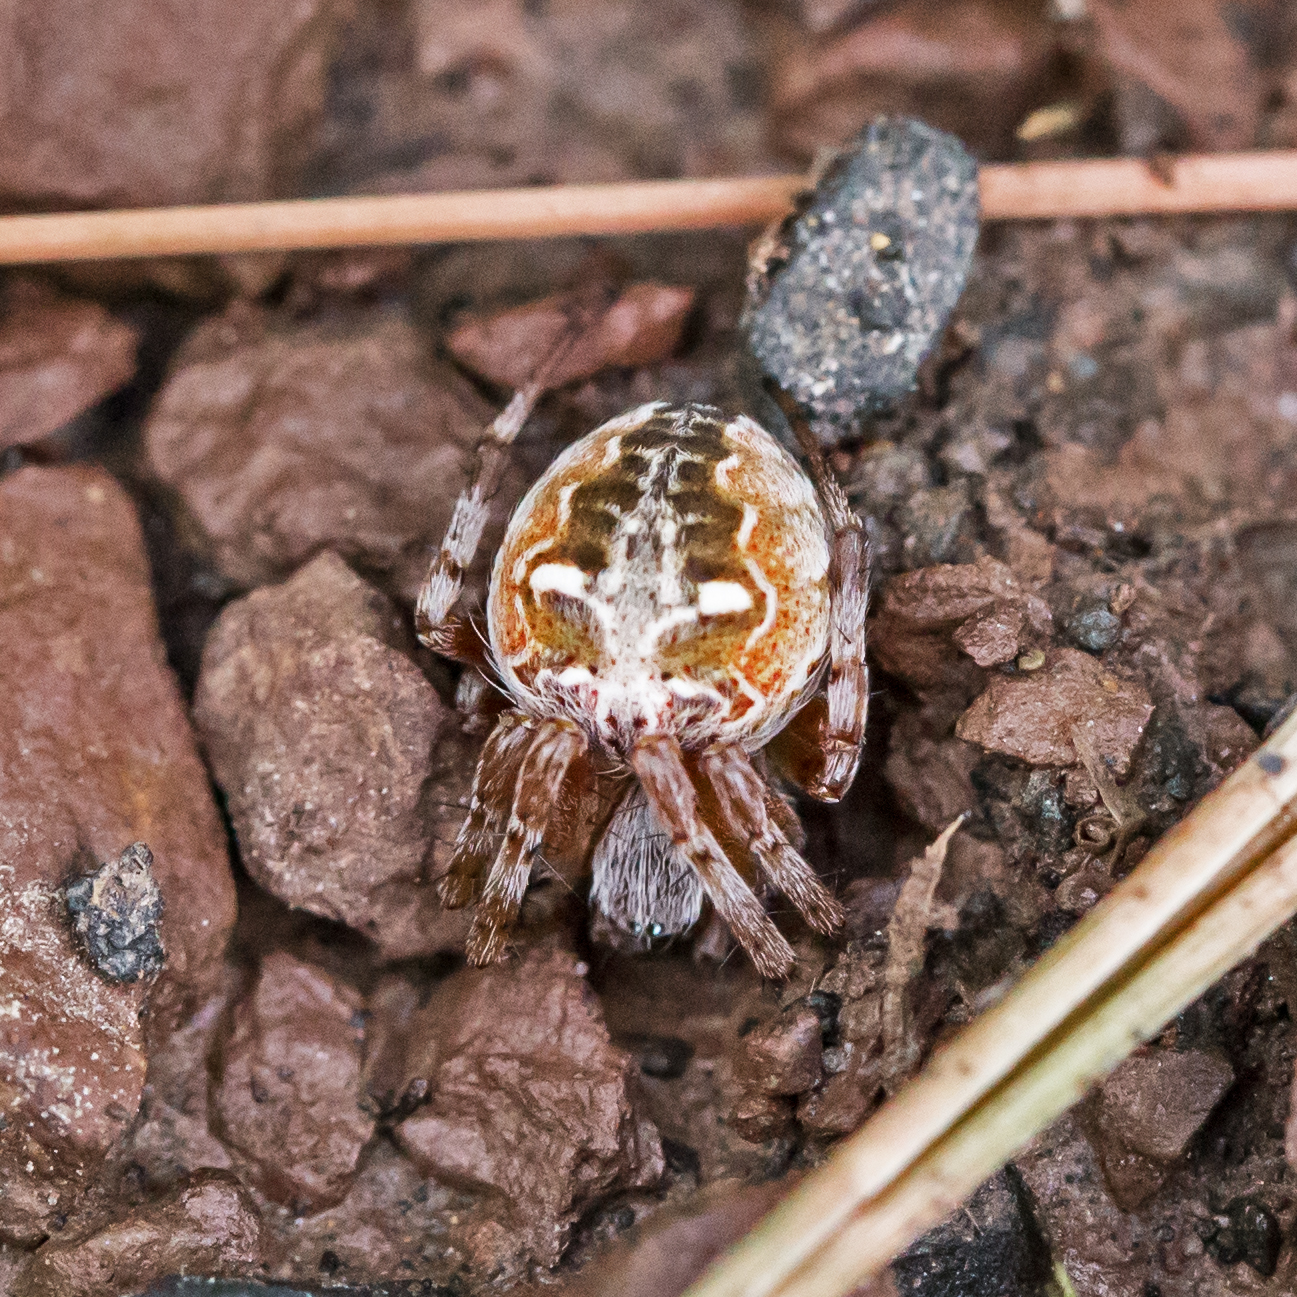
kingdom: Animalia
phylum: Arthropoda
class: Arachnida
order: Araneae
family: Araneidae
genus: Metepeira
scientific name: Metepeira labyrinthea
